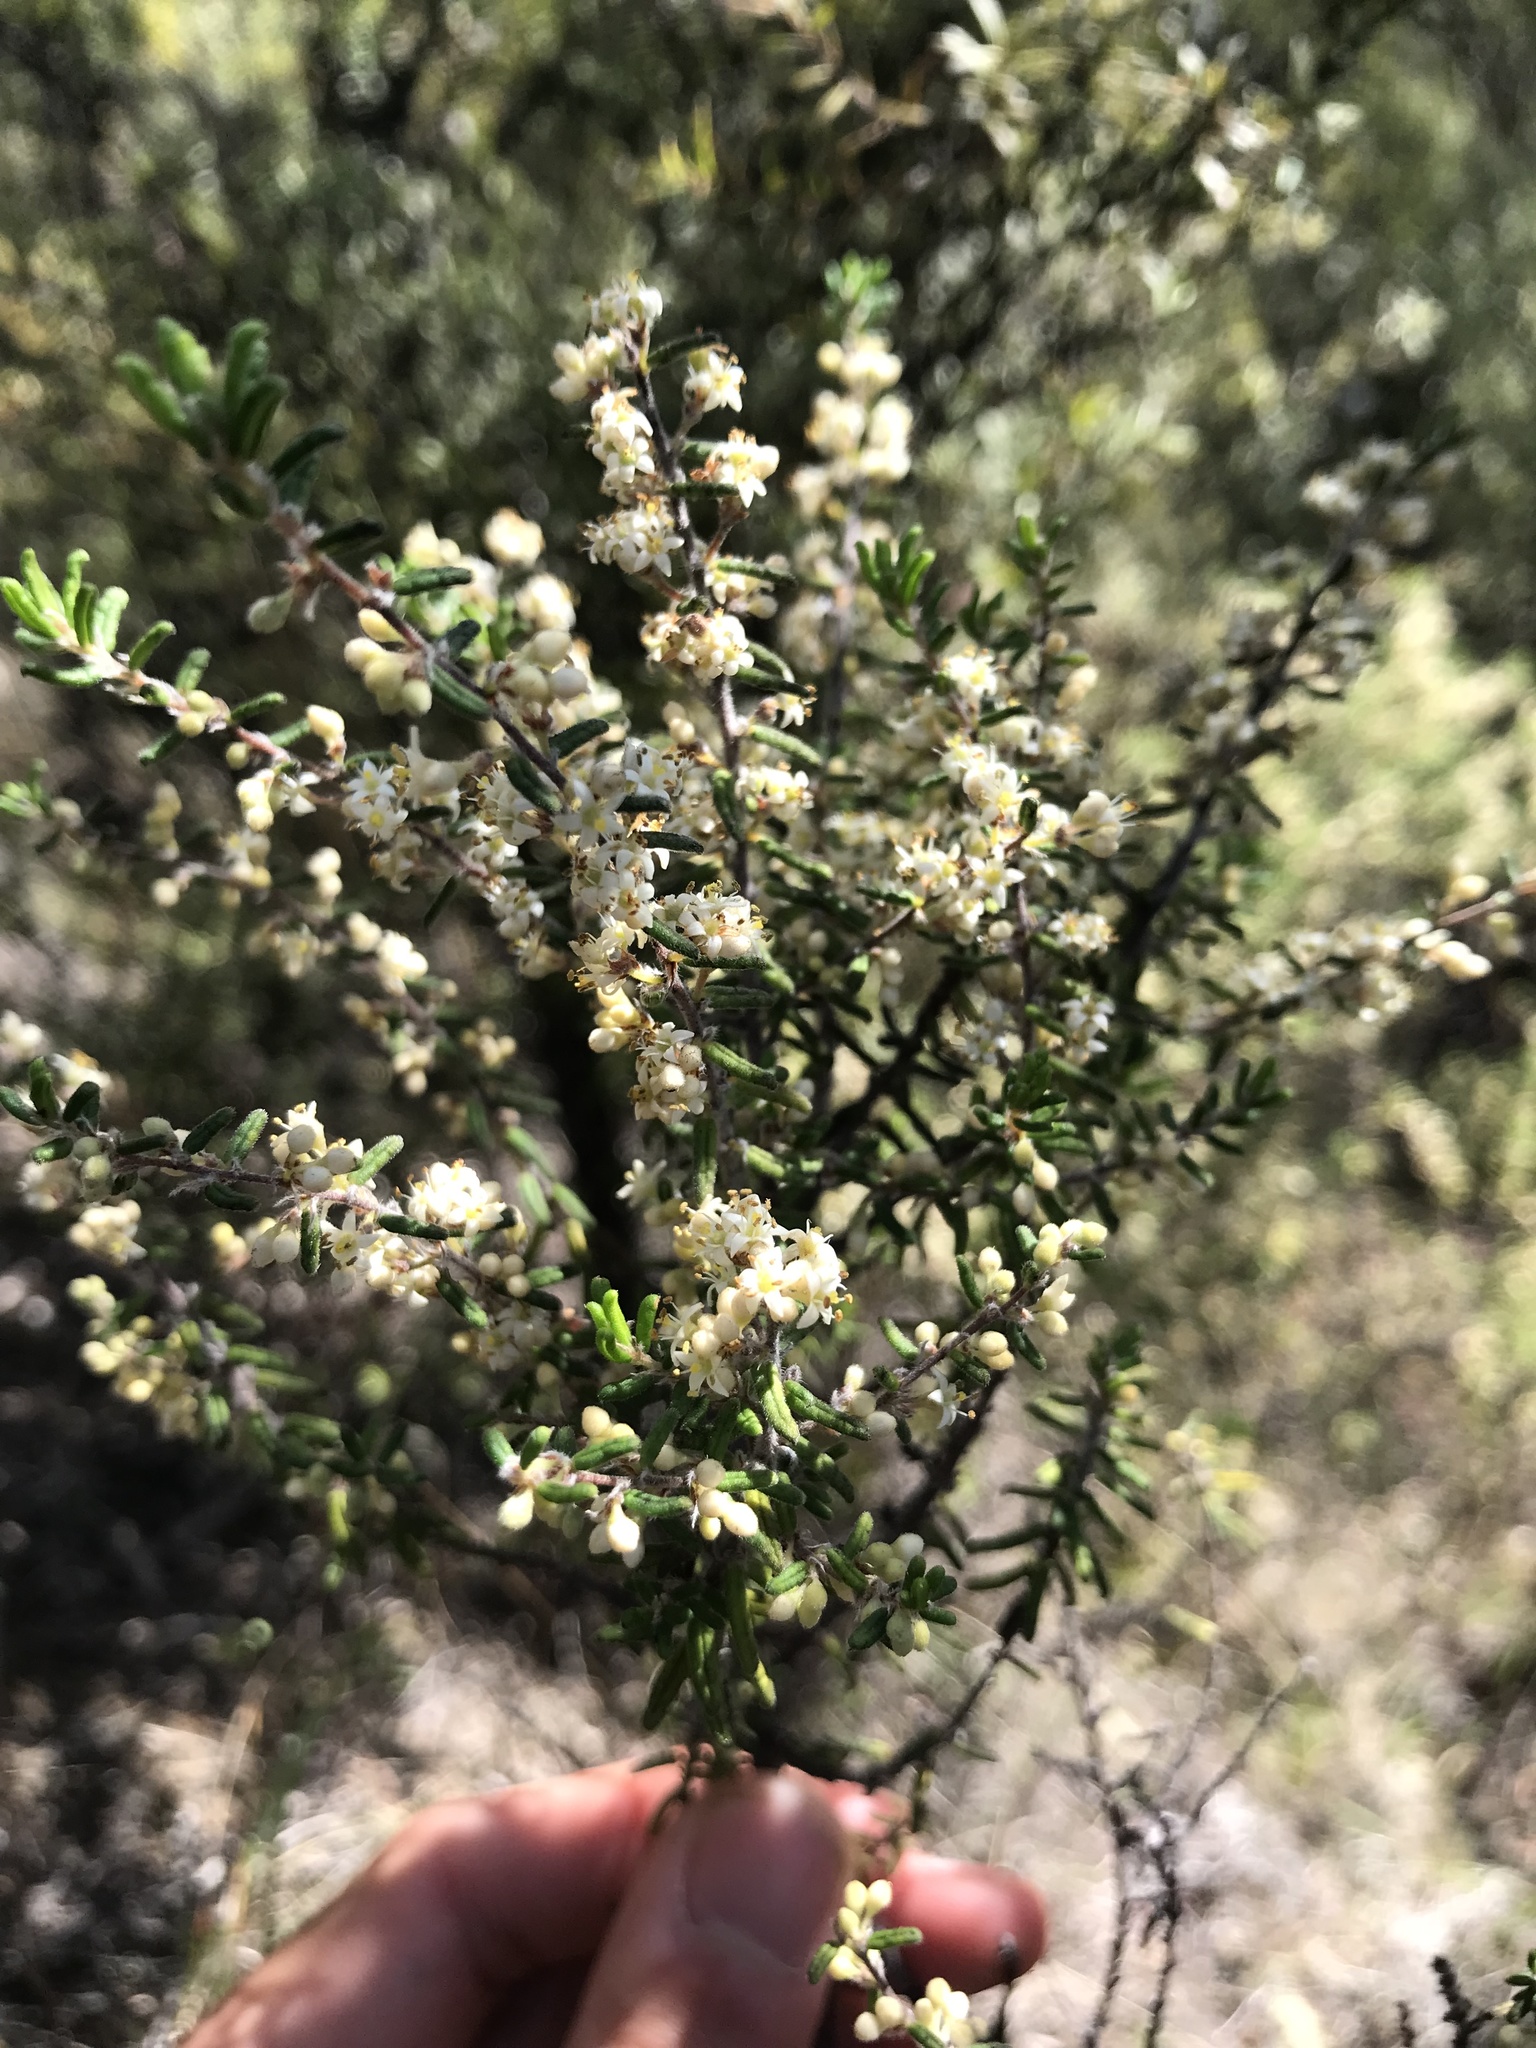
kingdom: Plantae
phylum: Tracheophyta
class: Magnoliopsida
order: Rosales
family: Rhamnaceae
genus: Pomaderris
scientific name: Pomaderris amoena
